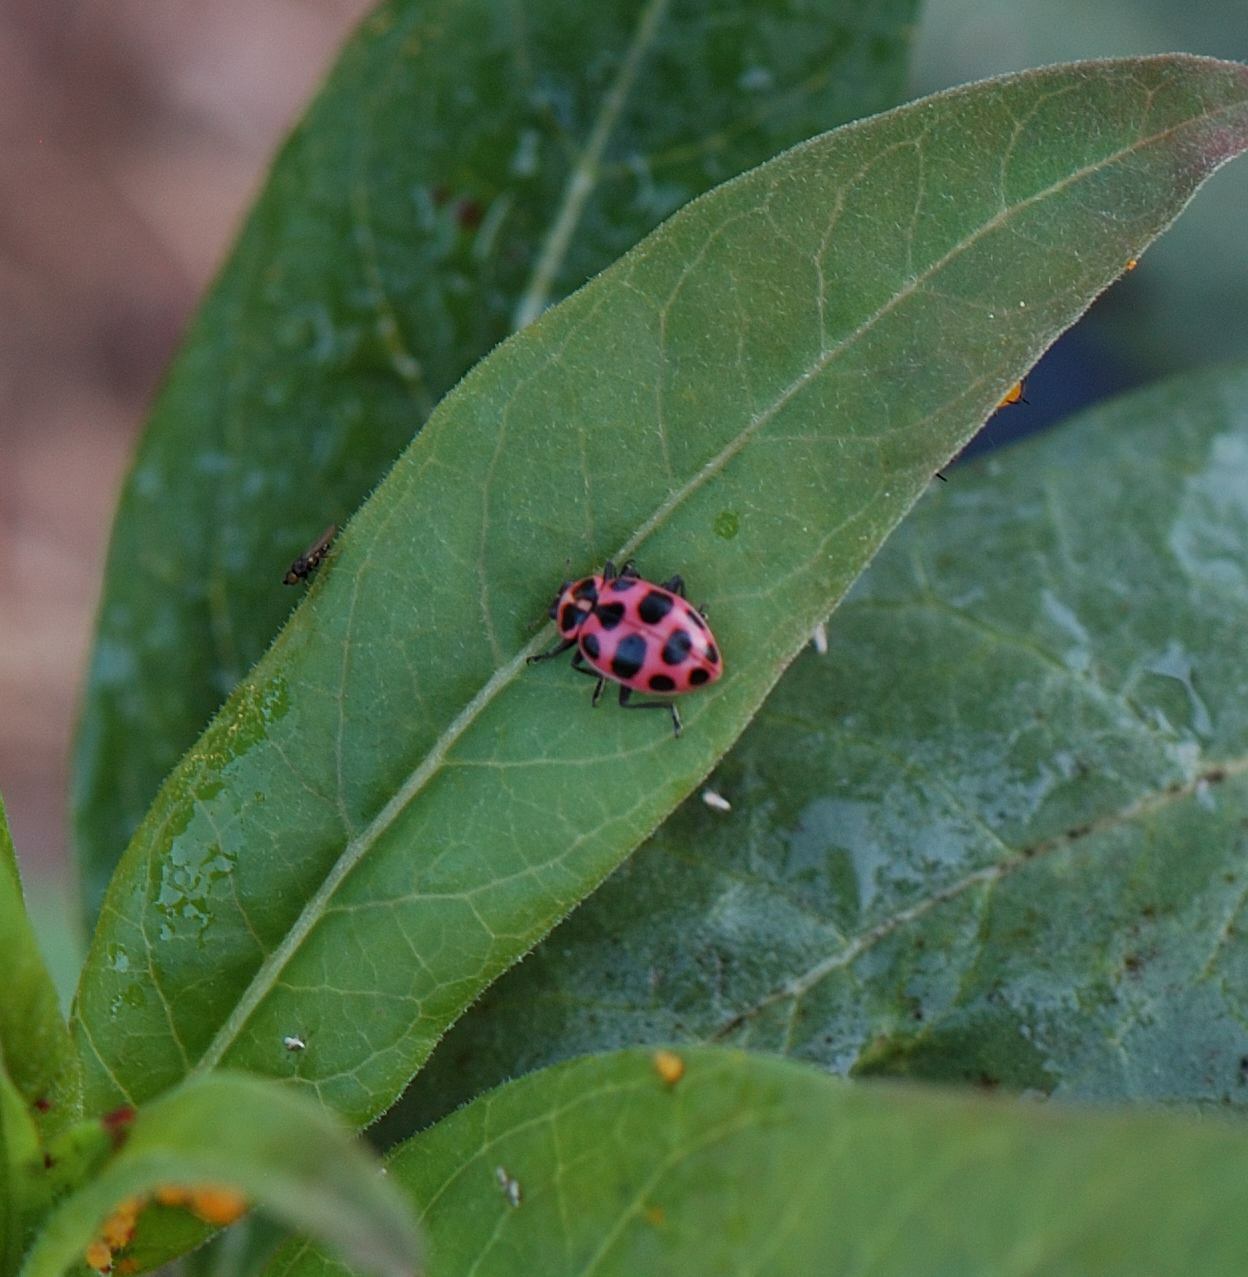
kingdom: Animalia
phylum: Arthropoda
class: Insecta
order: Coleoptera
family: Coccinellidae
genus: Coleomegilla
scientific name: Coleomegilla maculata
